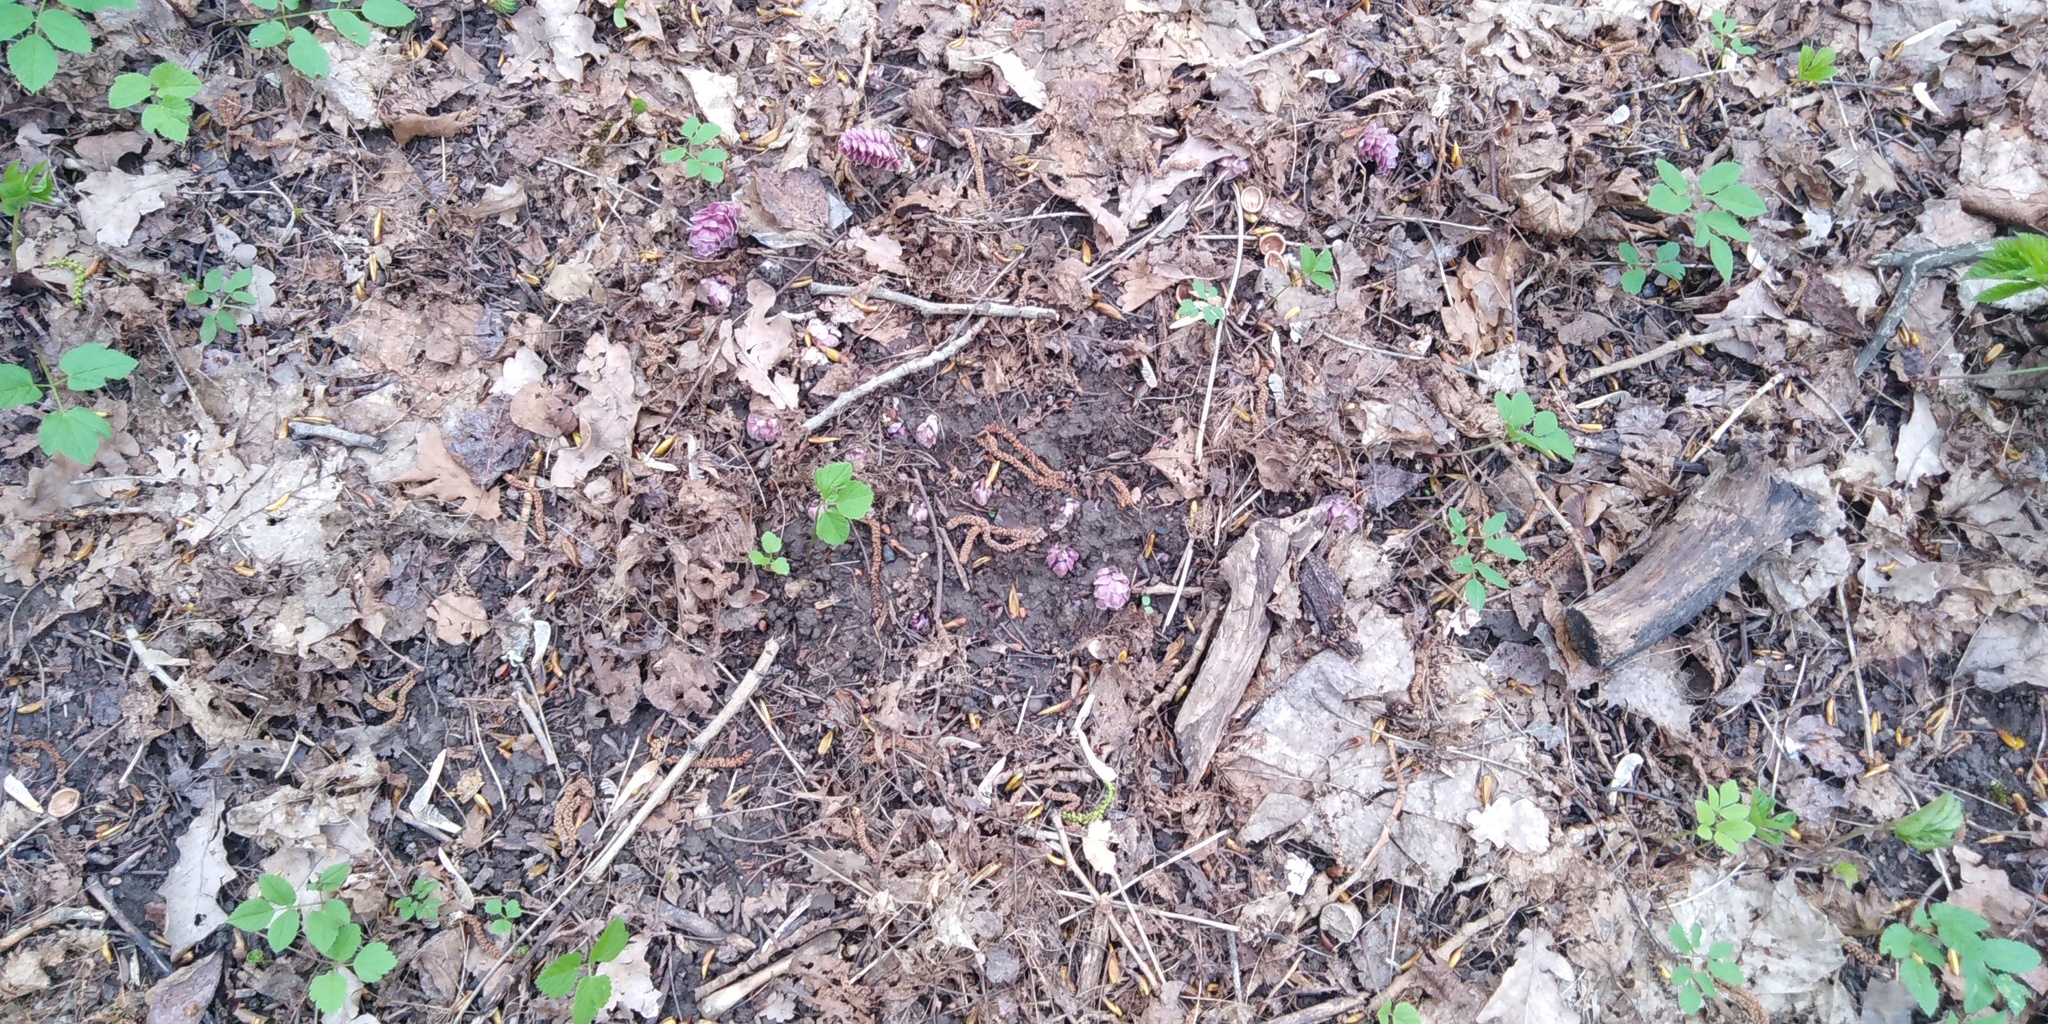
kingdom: Plantae
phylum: Tracheophyta
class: Magnoliopsida
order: Lamiales
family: Orobanchaceae
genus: Lathraea
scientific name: Lathraea squamaria
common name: Toothwort
